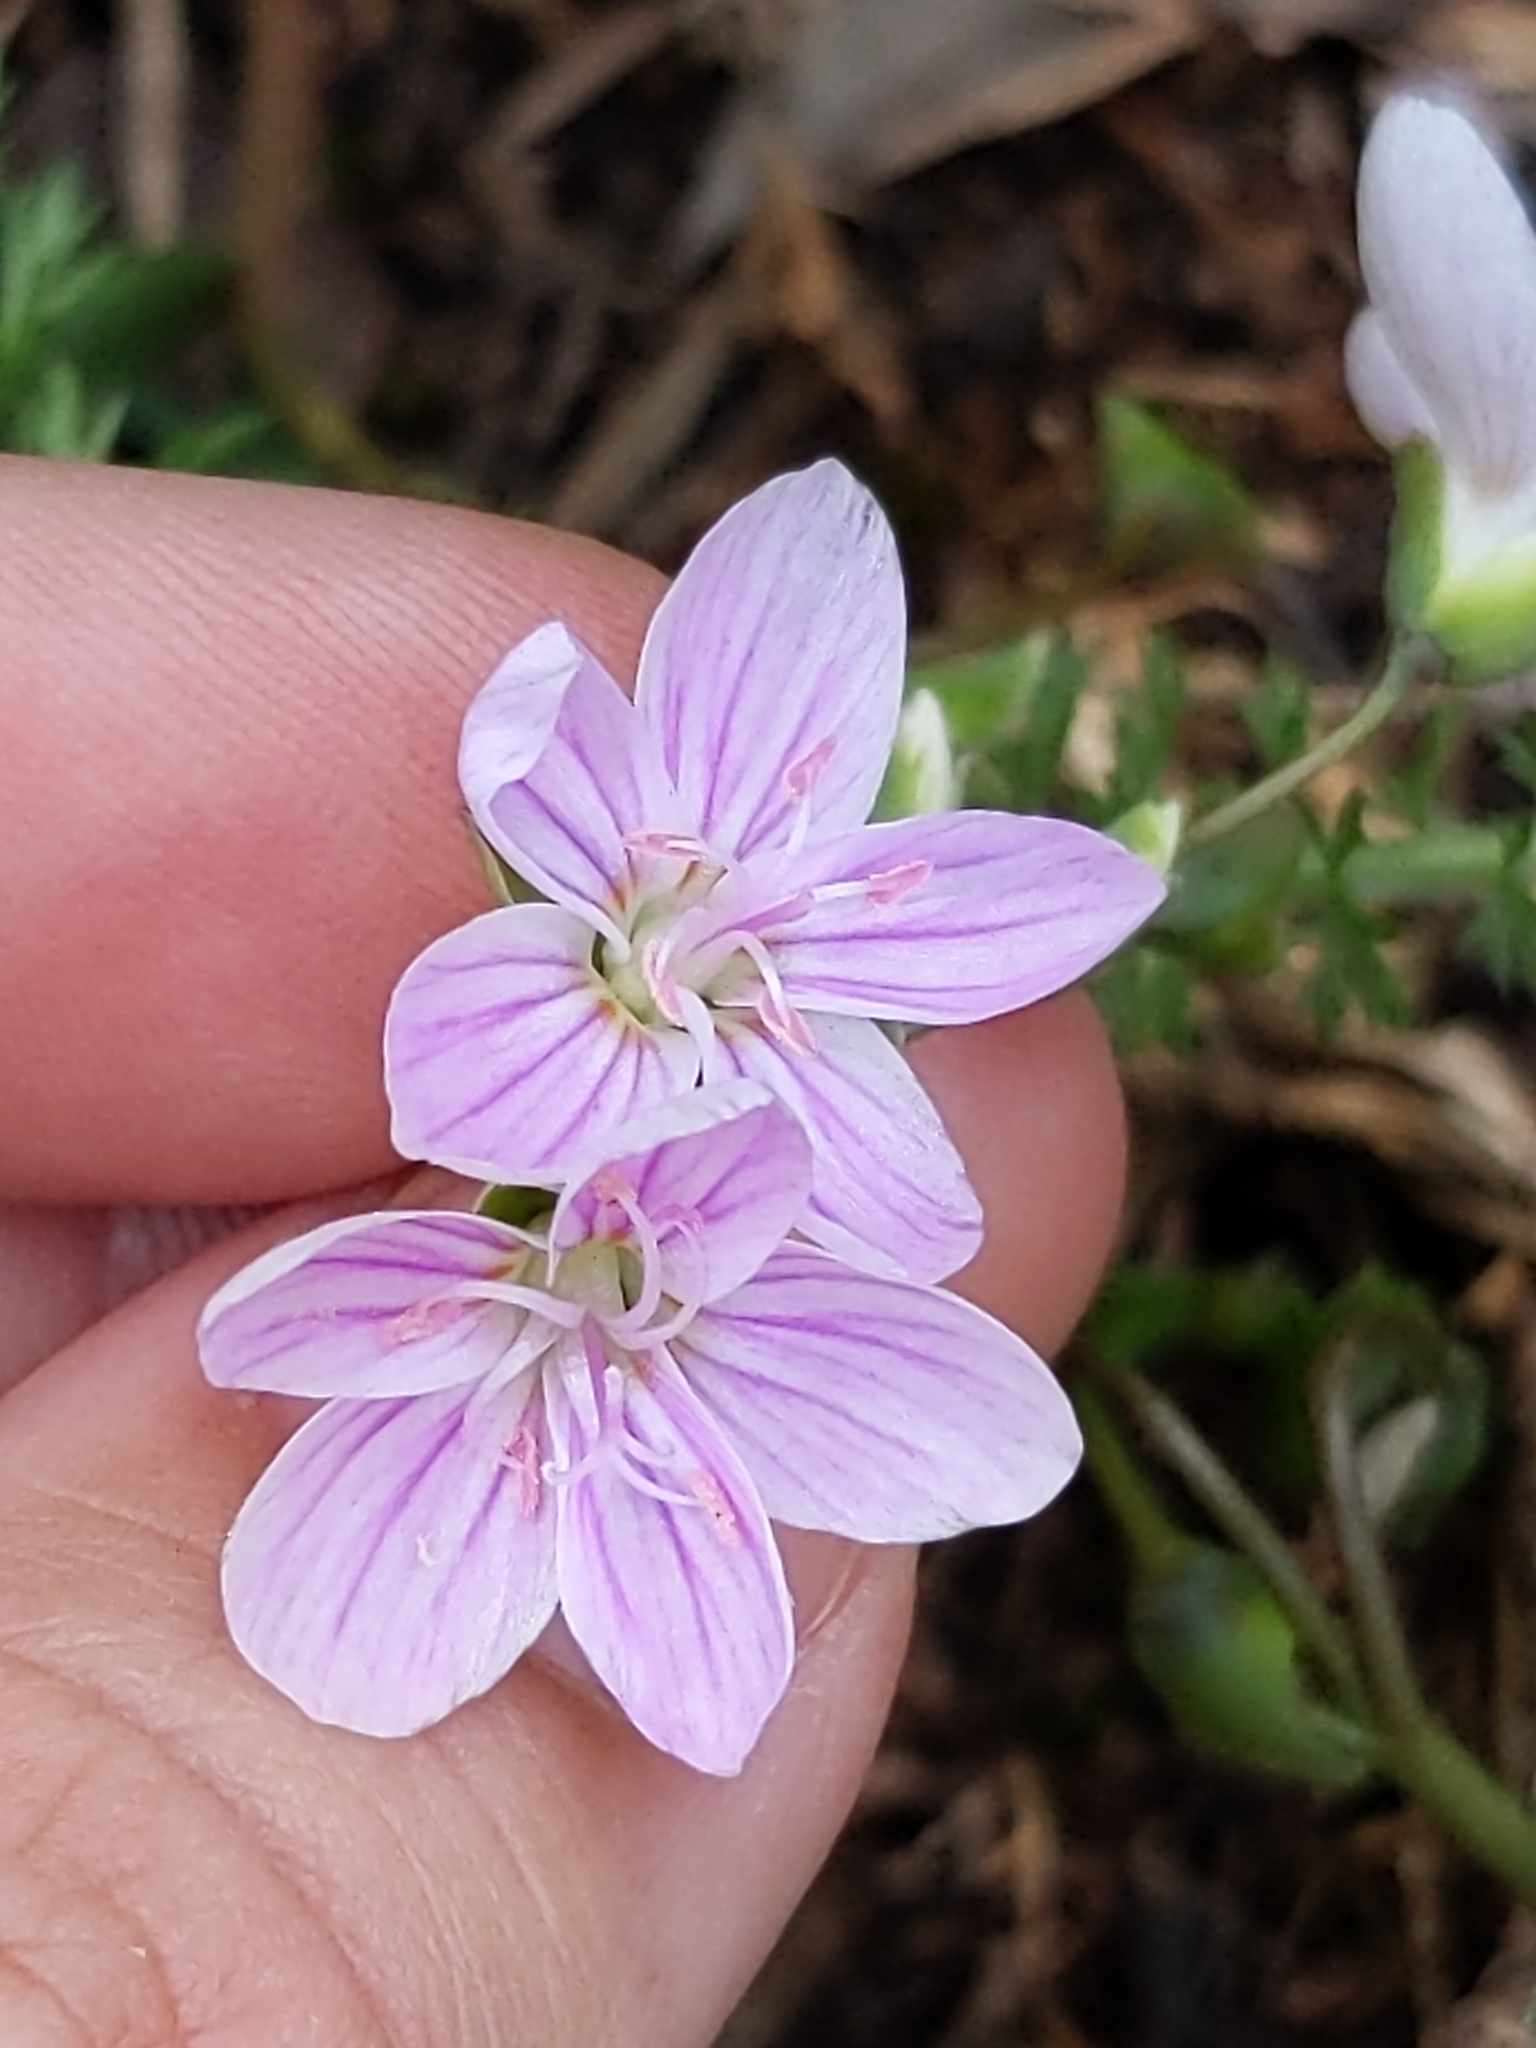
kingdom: Plantae
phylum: Tracheophyta
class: Magnoliopsida
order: Caryophyllales
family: Montiaceae
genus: Claytonia
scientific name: Claytonia rosea
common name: Rocky mountain spring-beauty
